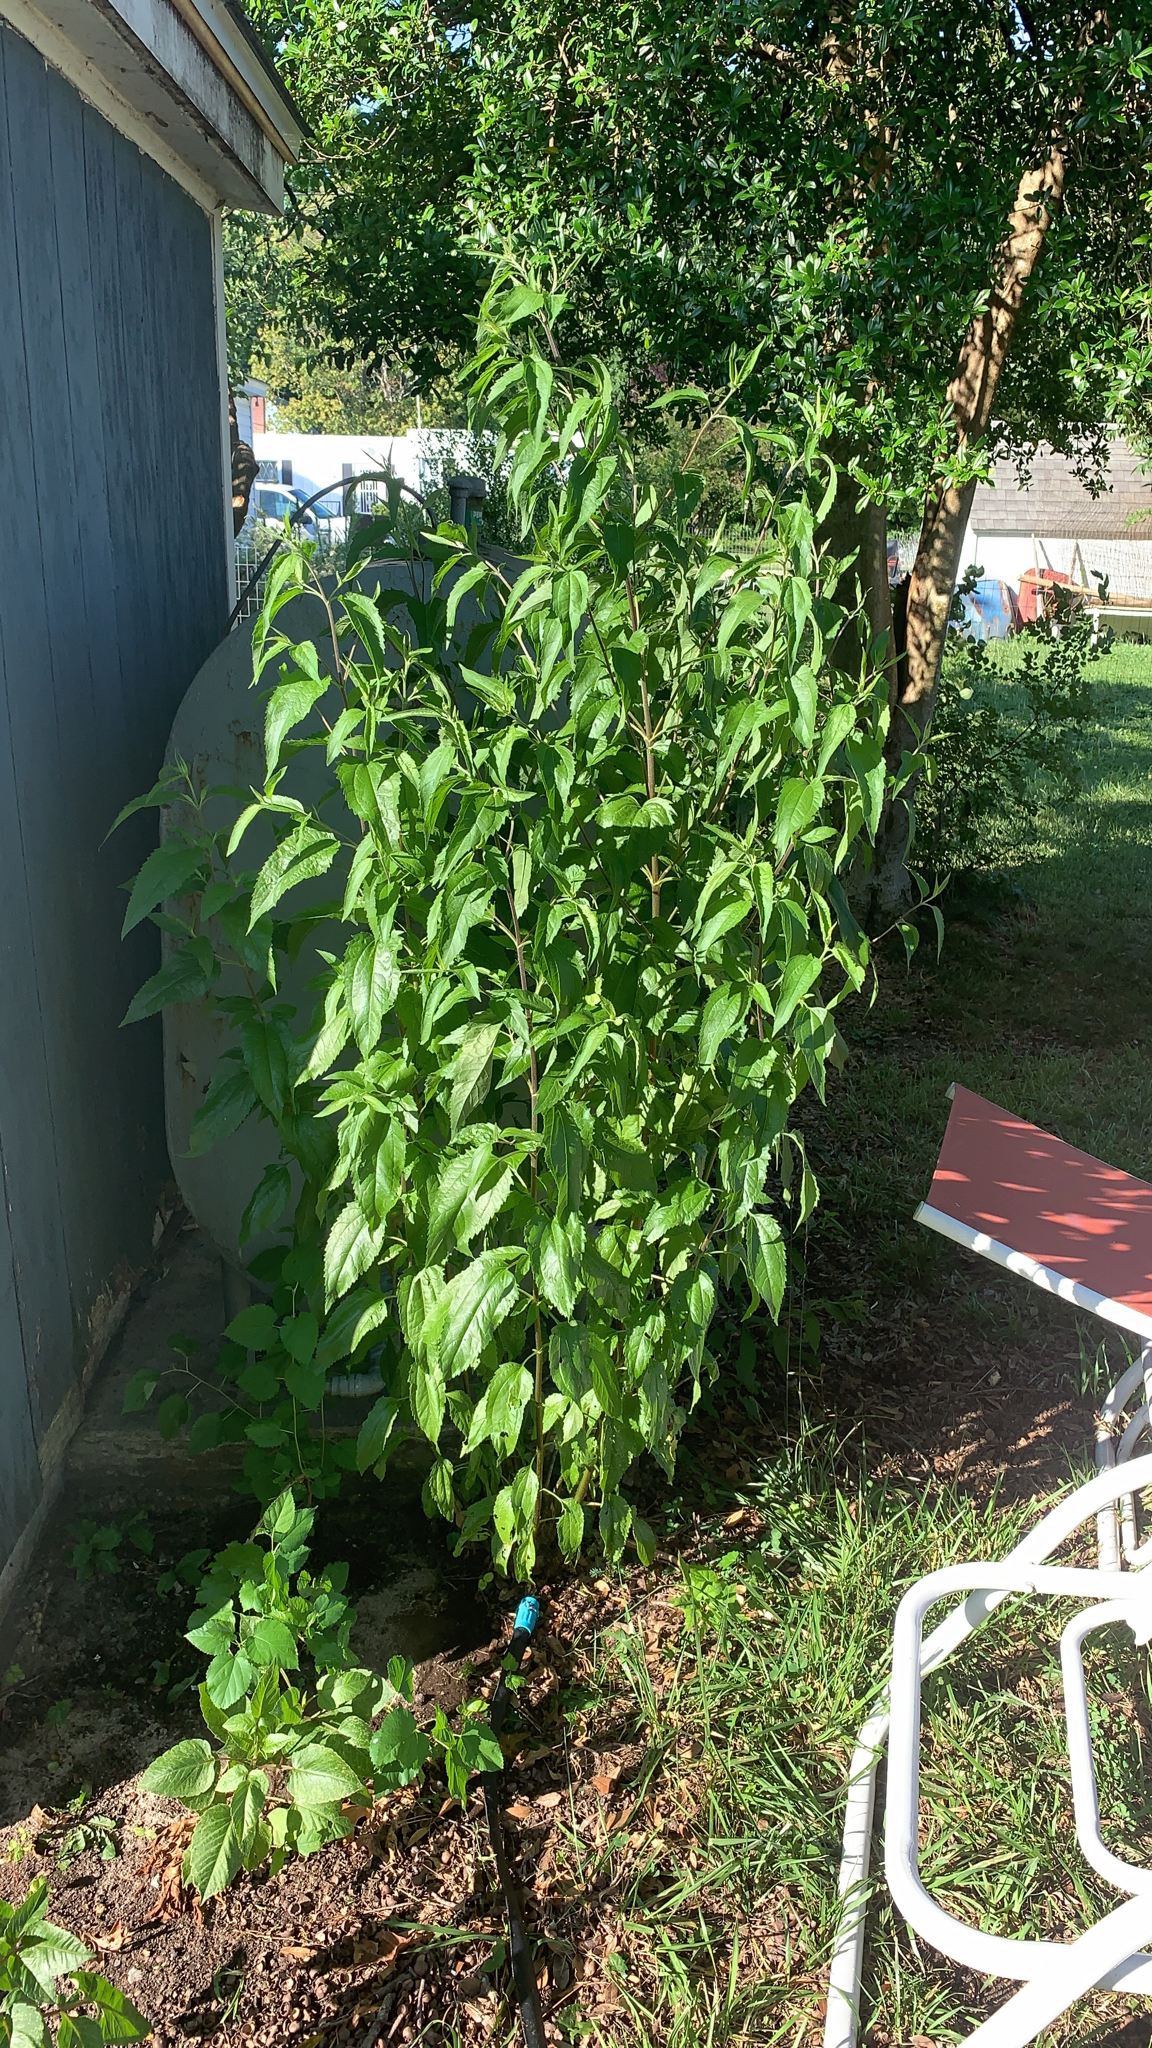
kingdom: Plantae
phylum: Tracheophyta
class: Magnoliopsida
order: Asterales
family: Asteraceae
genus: Eupatorium
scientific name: Eupatorium serotinum
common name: Late boneset
